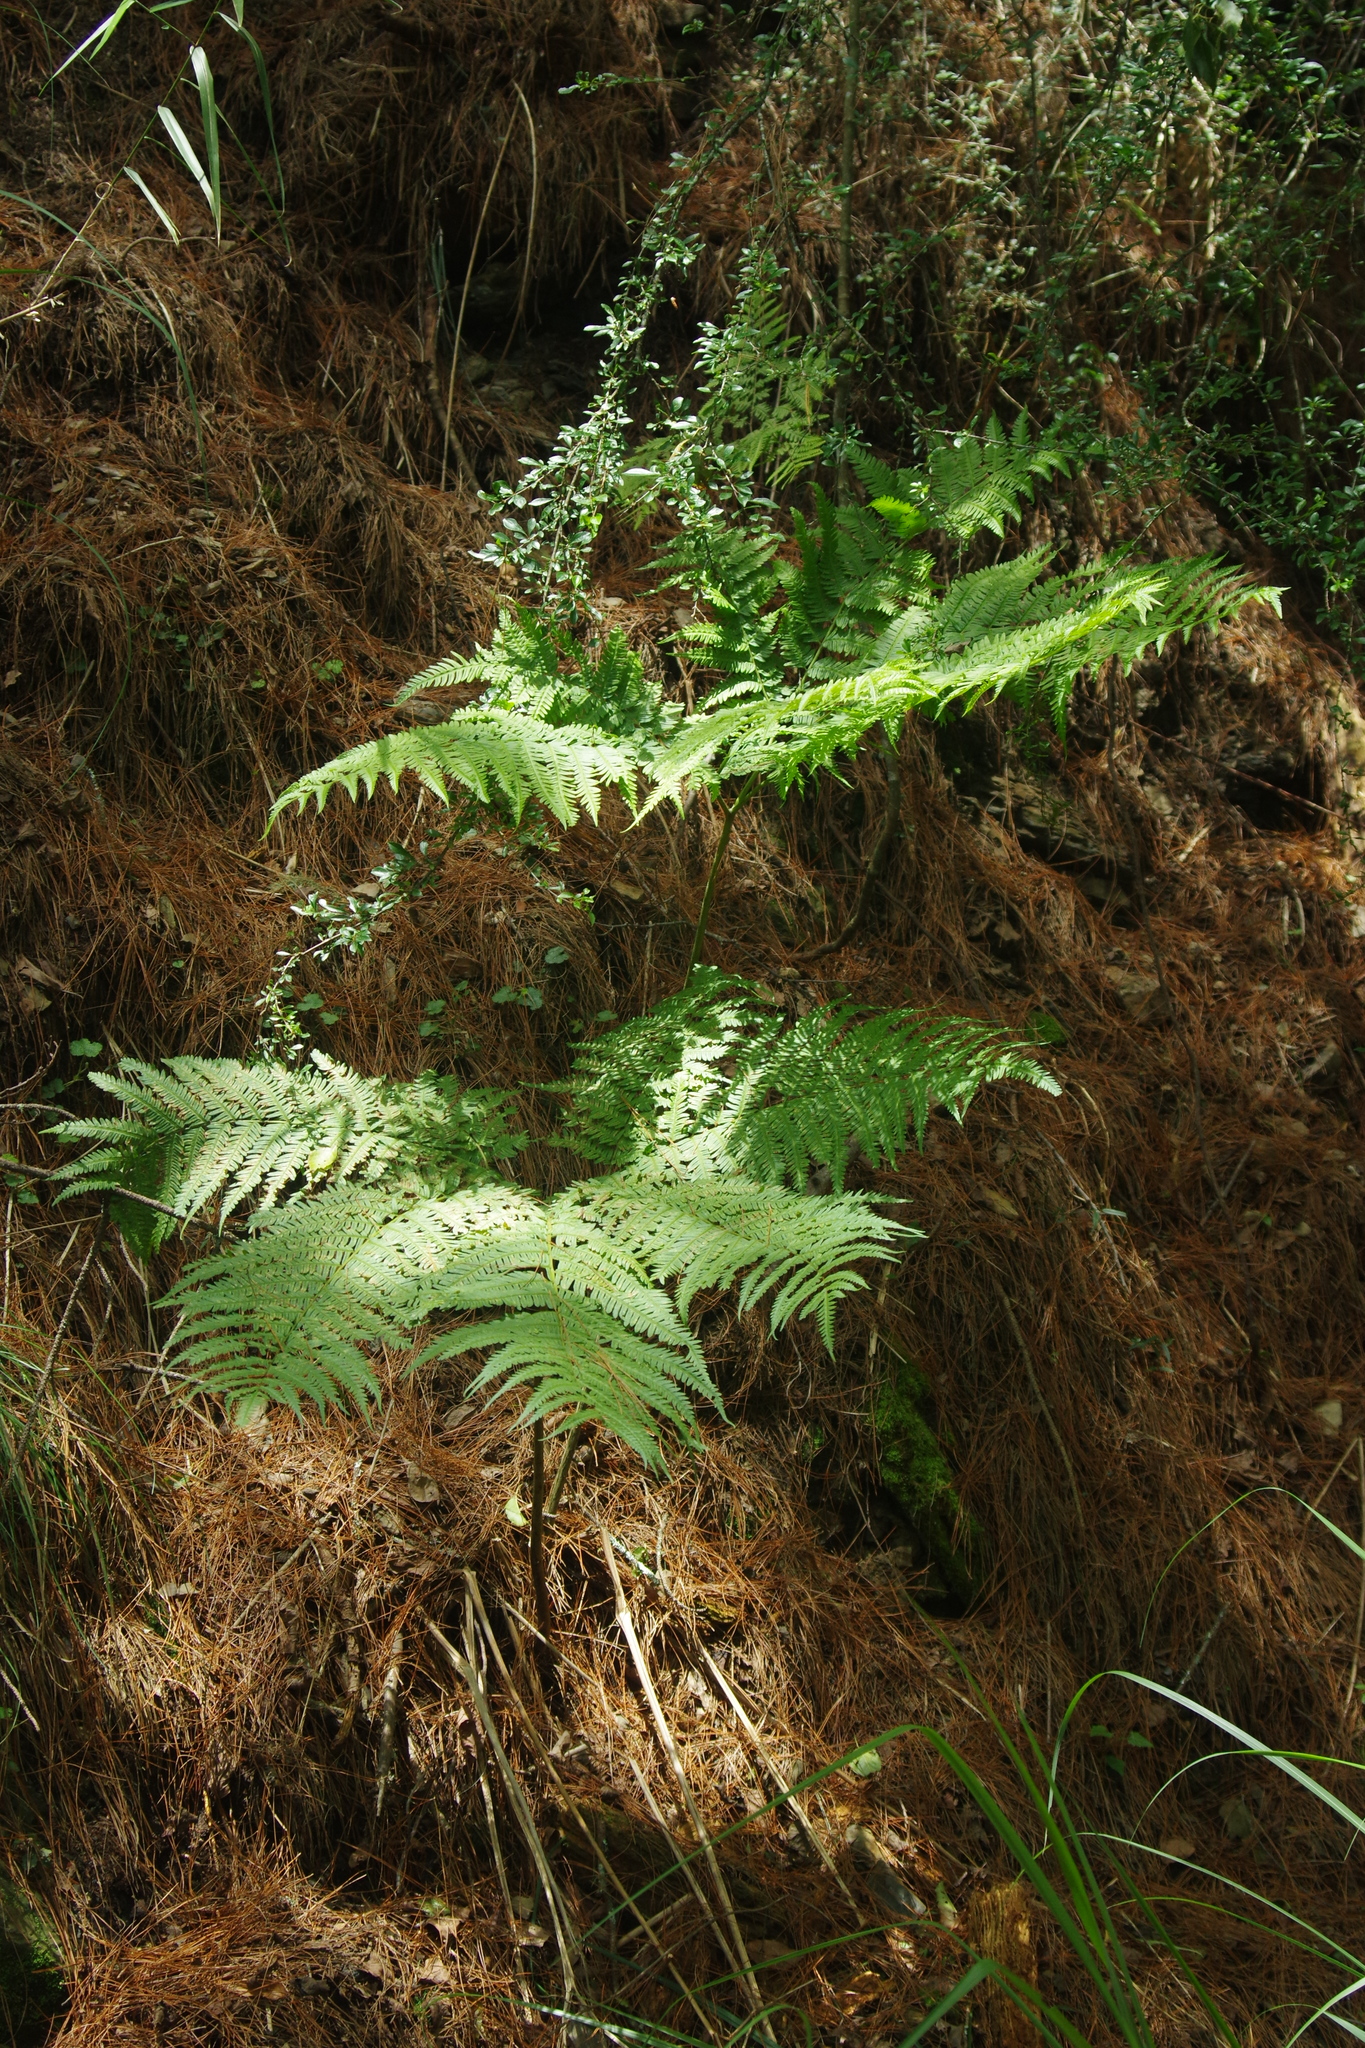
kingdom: Plantae
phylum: Tracheophyta
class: Polypodiopsida
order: Polypodiales
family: Pteridaceae
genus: Pteris
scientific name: Pteris wallichiana
